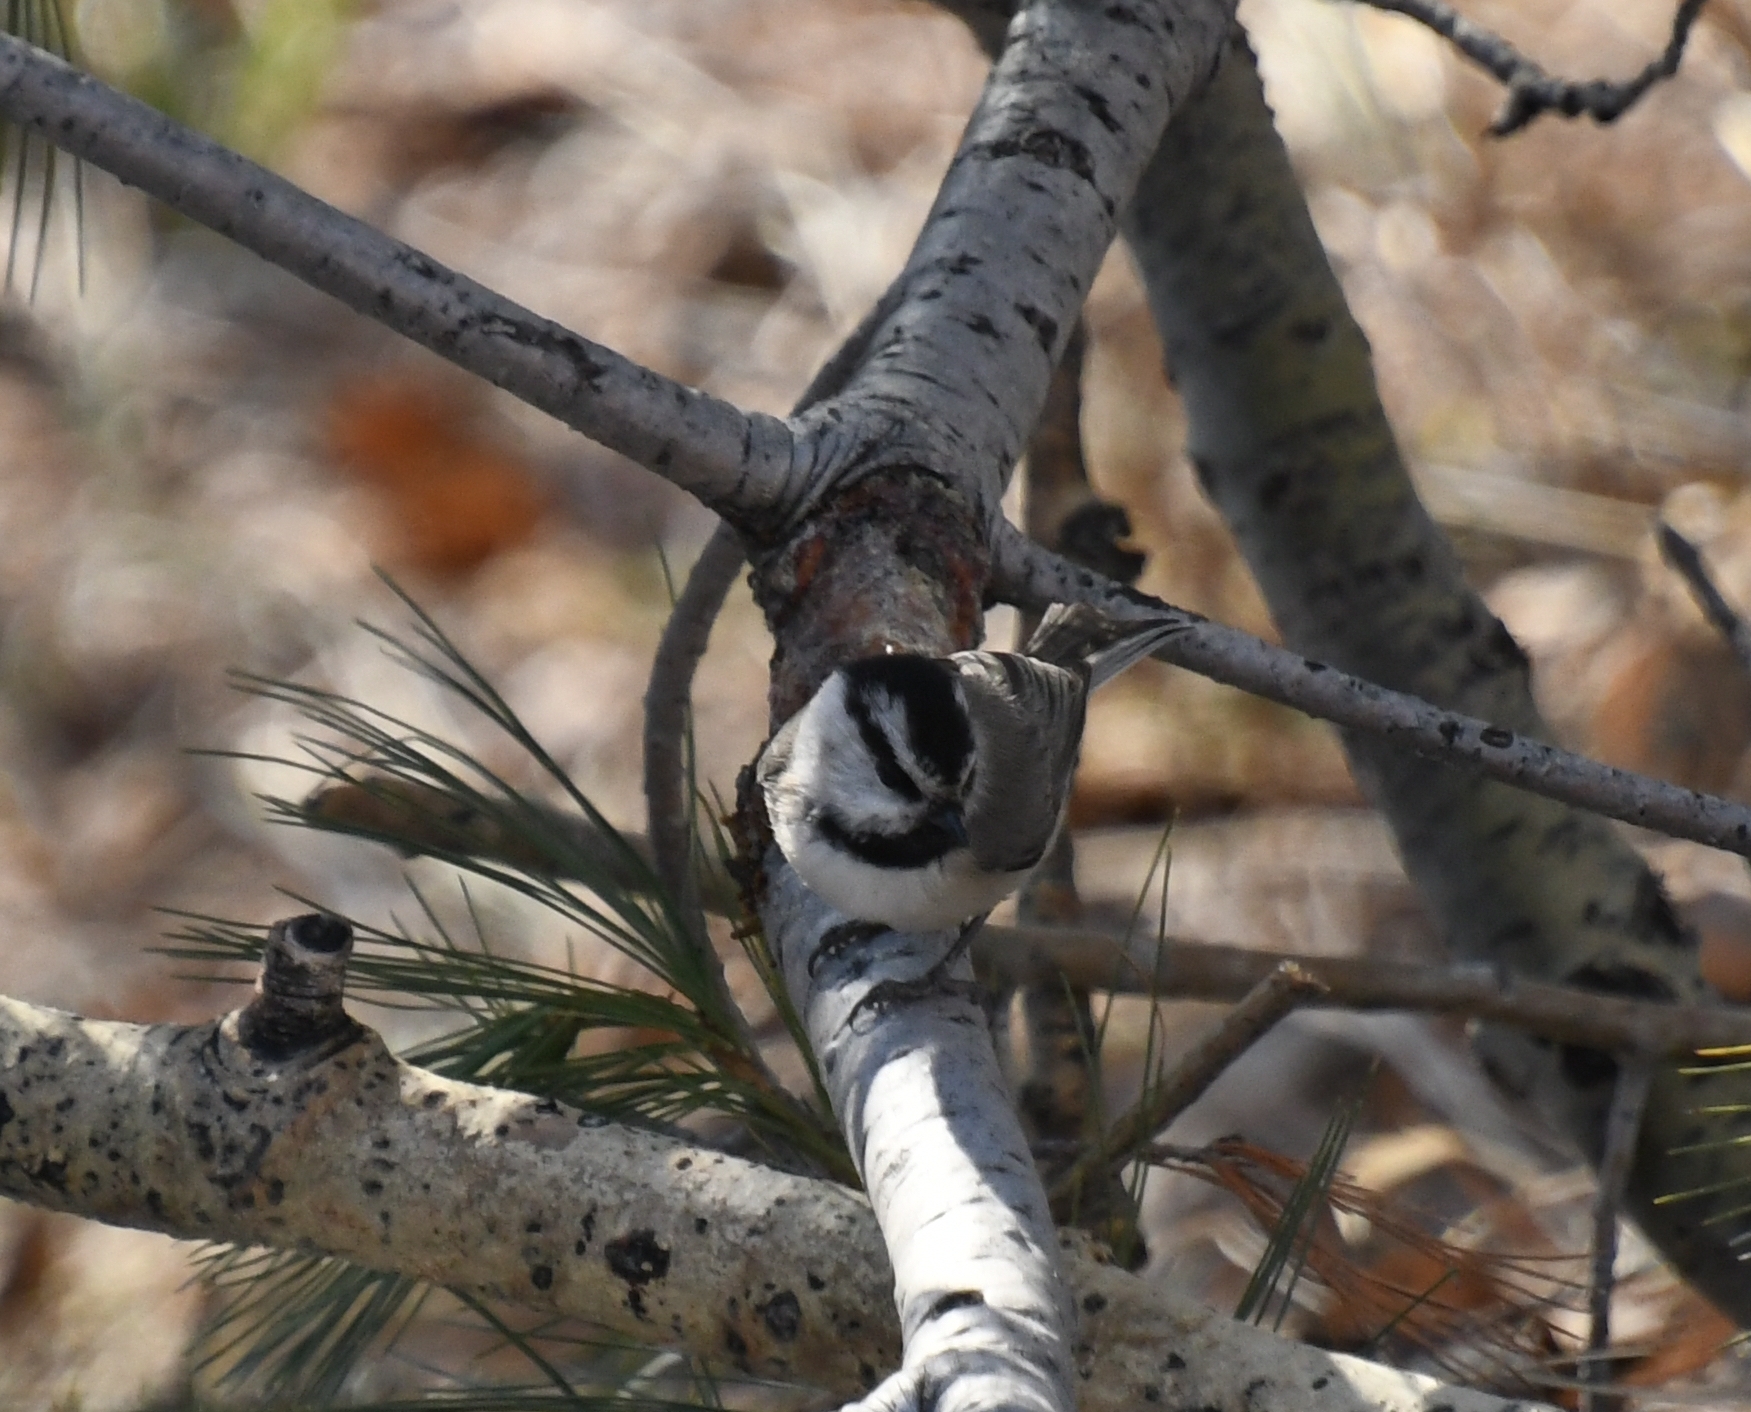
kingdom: Animalia
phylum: Chordata
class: Aves
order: Passeriformes
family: Paridae
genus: Poecile
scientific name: Poecile gambeli
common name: Mountain chickadee
